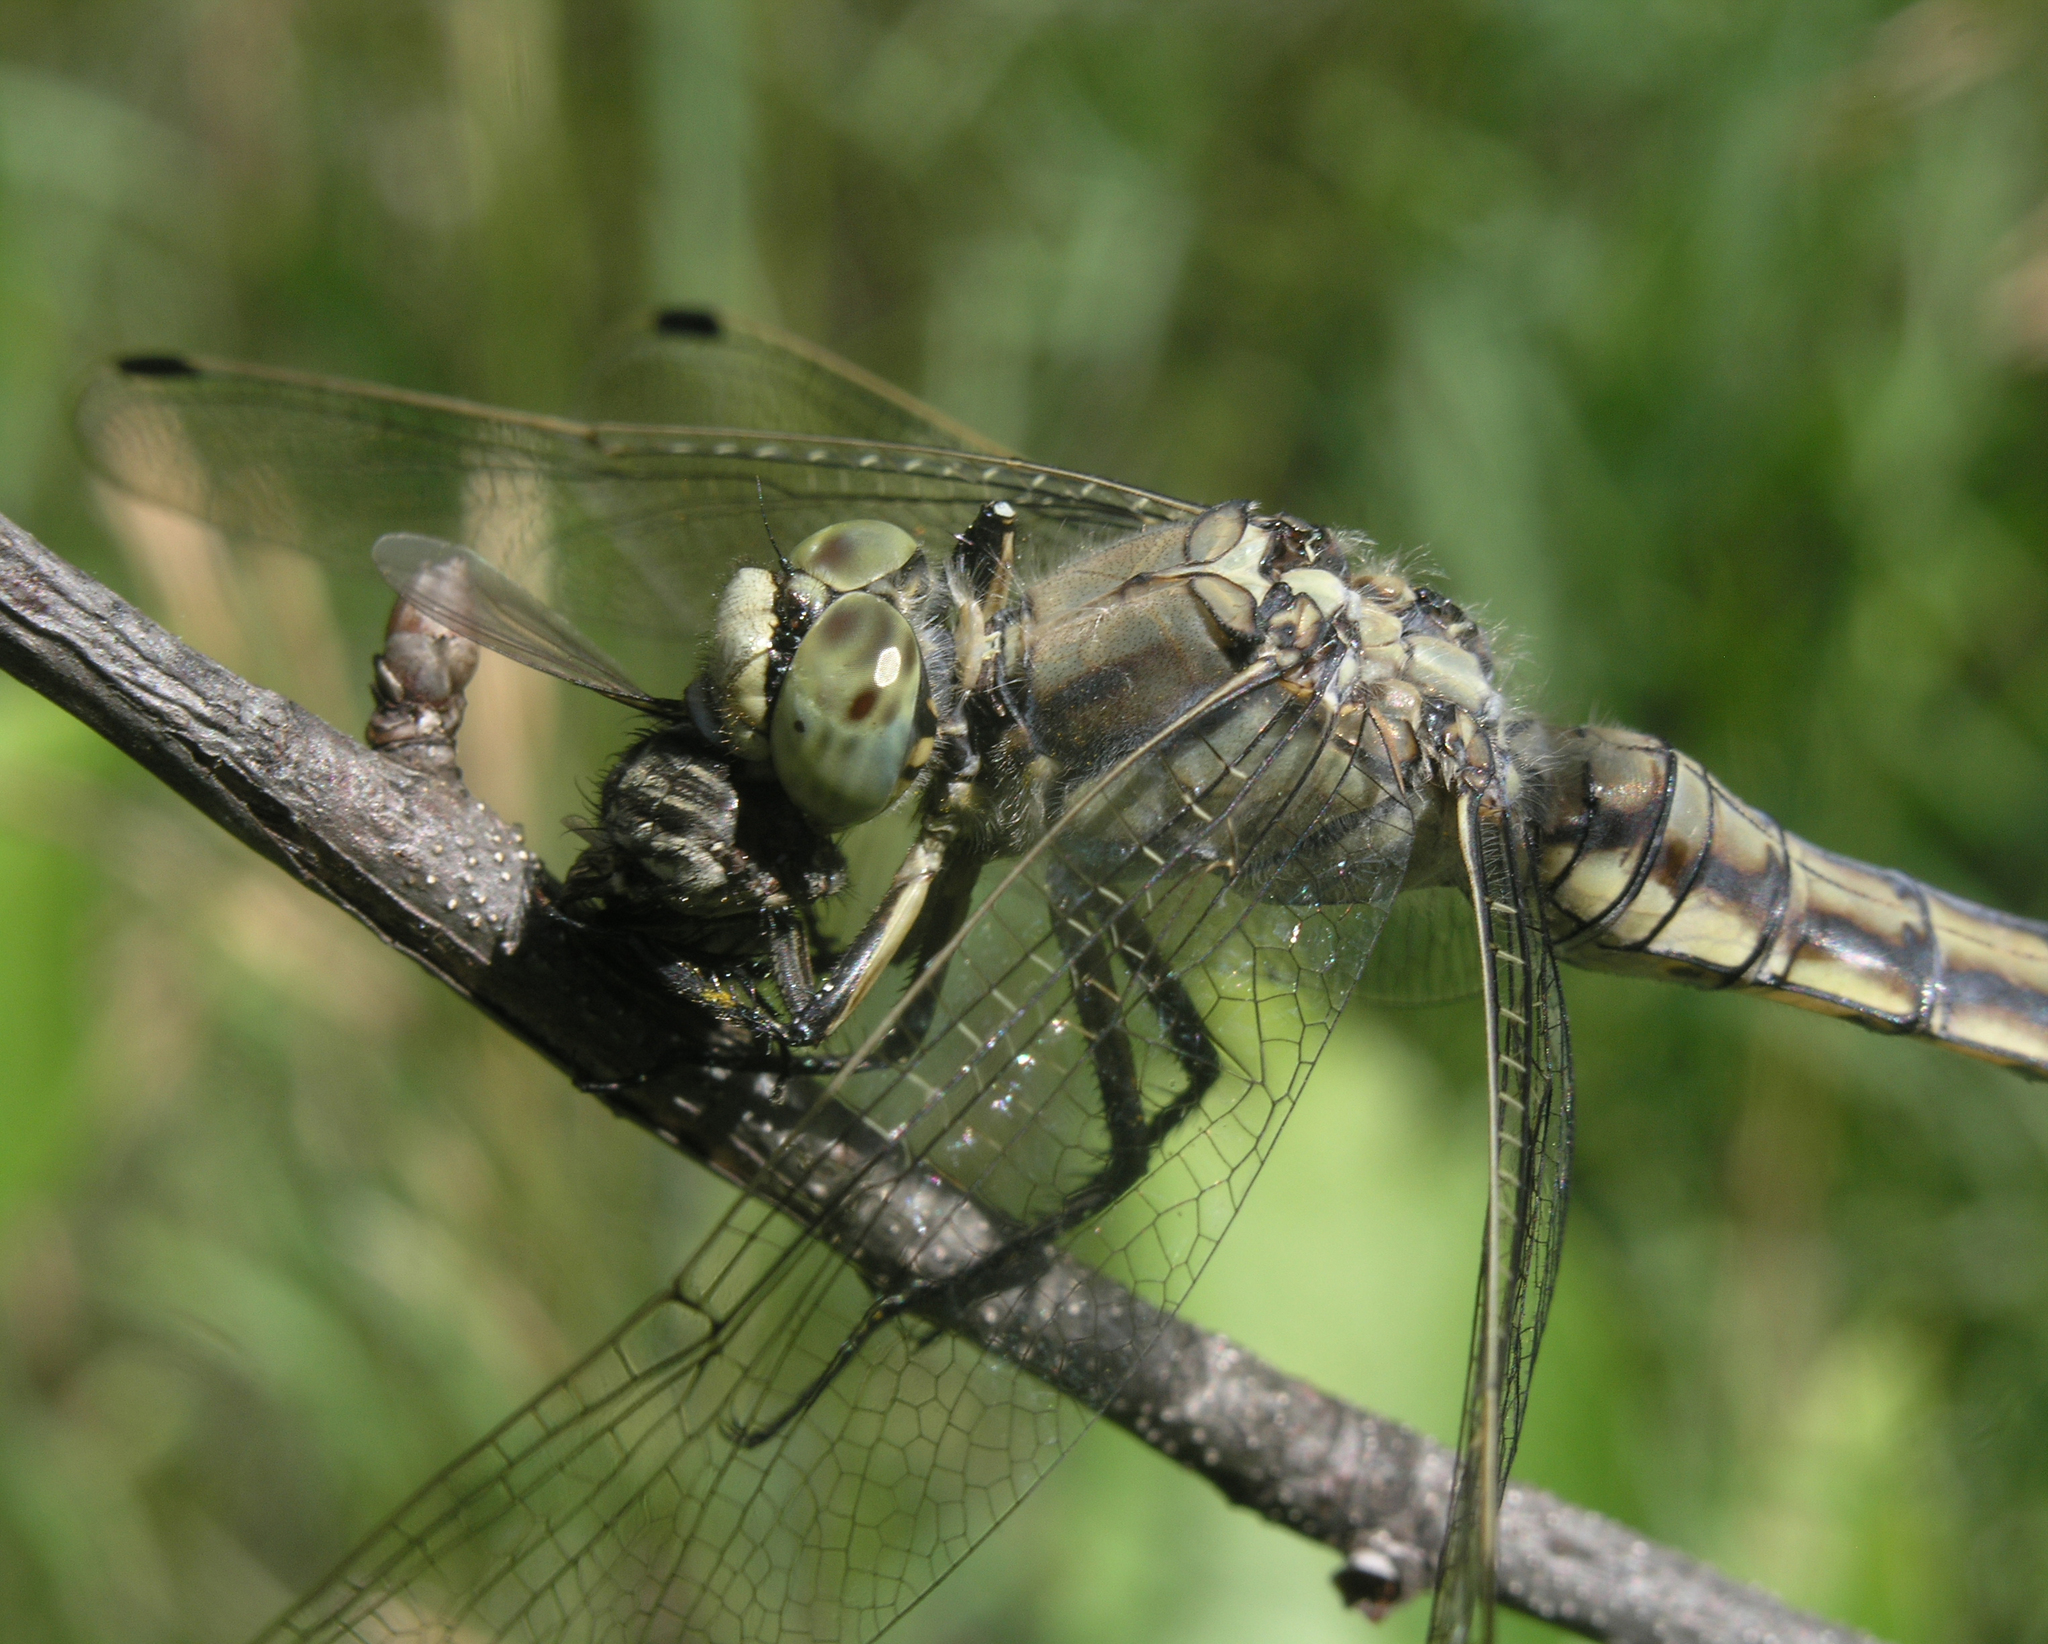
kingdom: Animalia
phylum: Arthropoda
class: Insecta
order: Odonata
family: Libellulidae
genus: Orthetrum
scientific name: Orthetrum cancellatum
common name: Black-tailed skimmer
